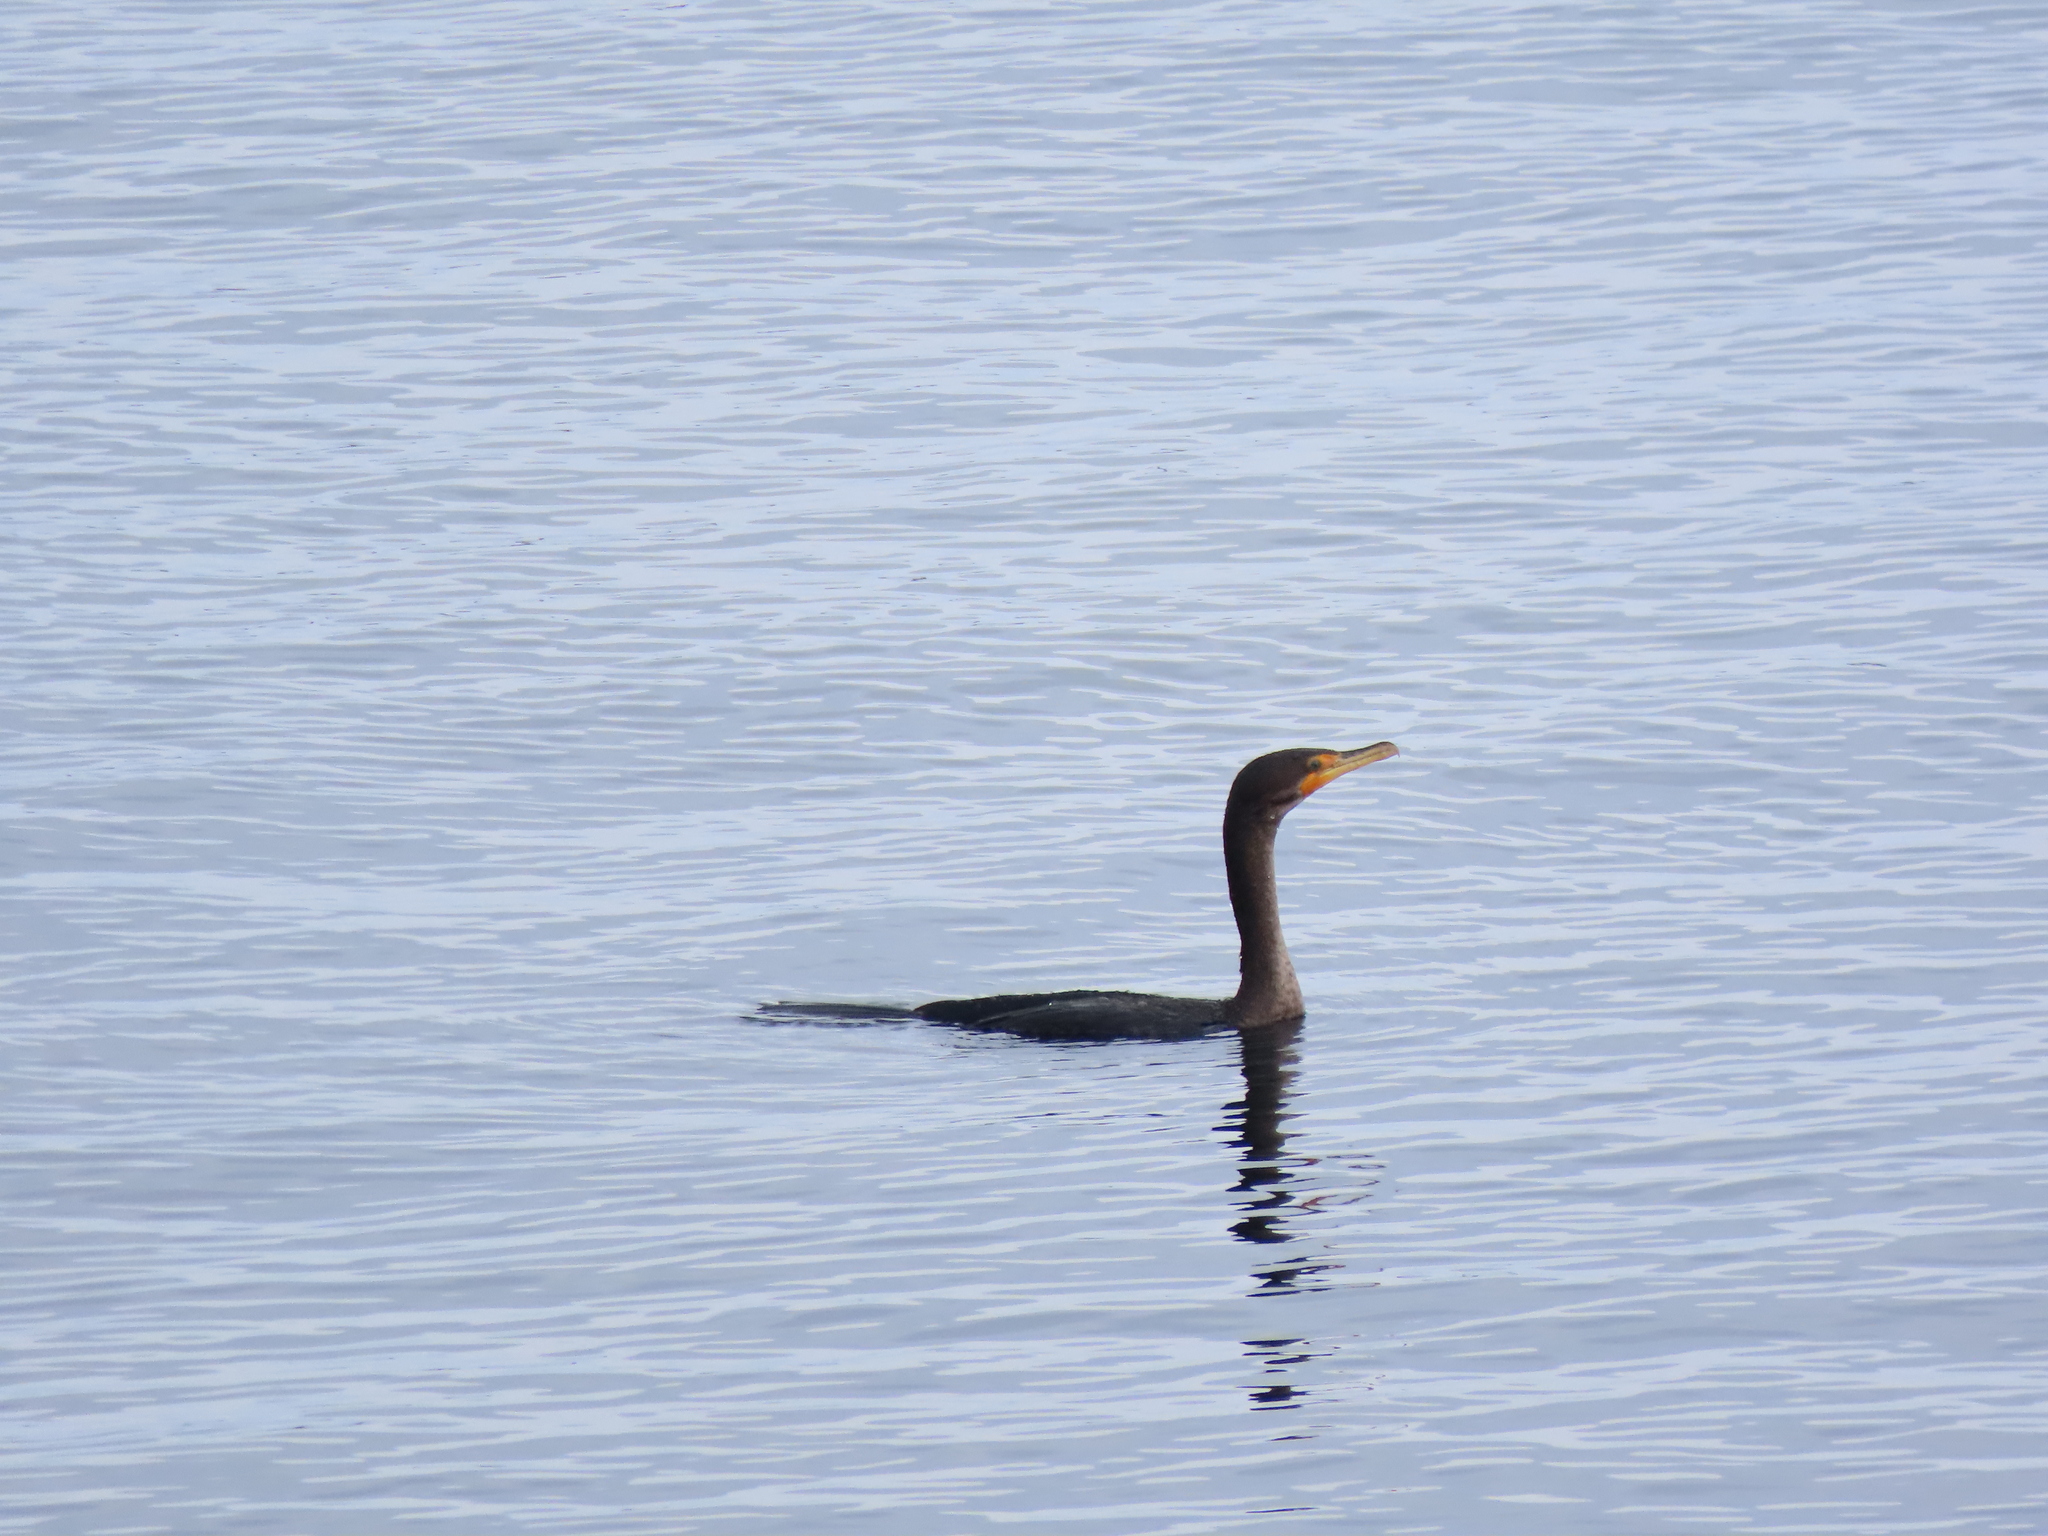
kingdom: Animalia
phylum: Chordata
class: Aves
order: Suliformes
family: Phalacrocoracidae
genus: Phalacrocorax
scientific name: Phalacrocorax auritus
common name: Double-crested cormorant
